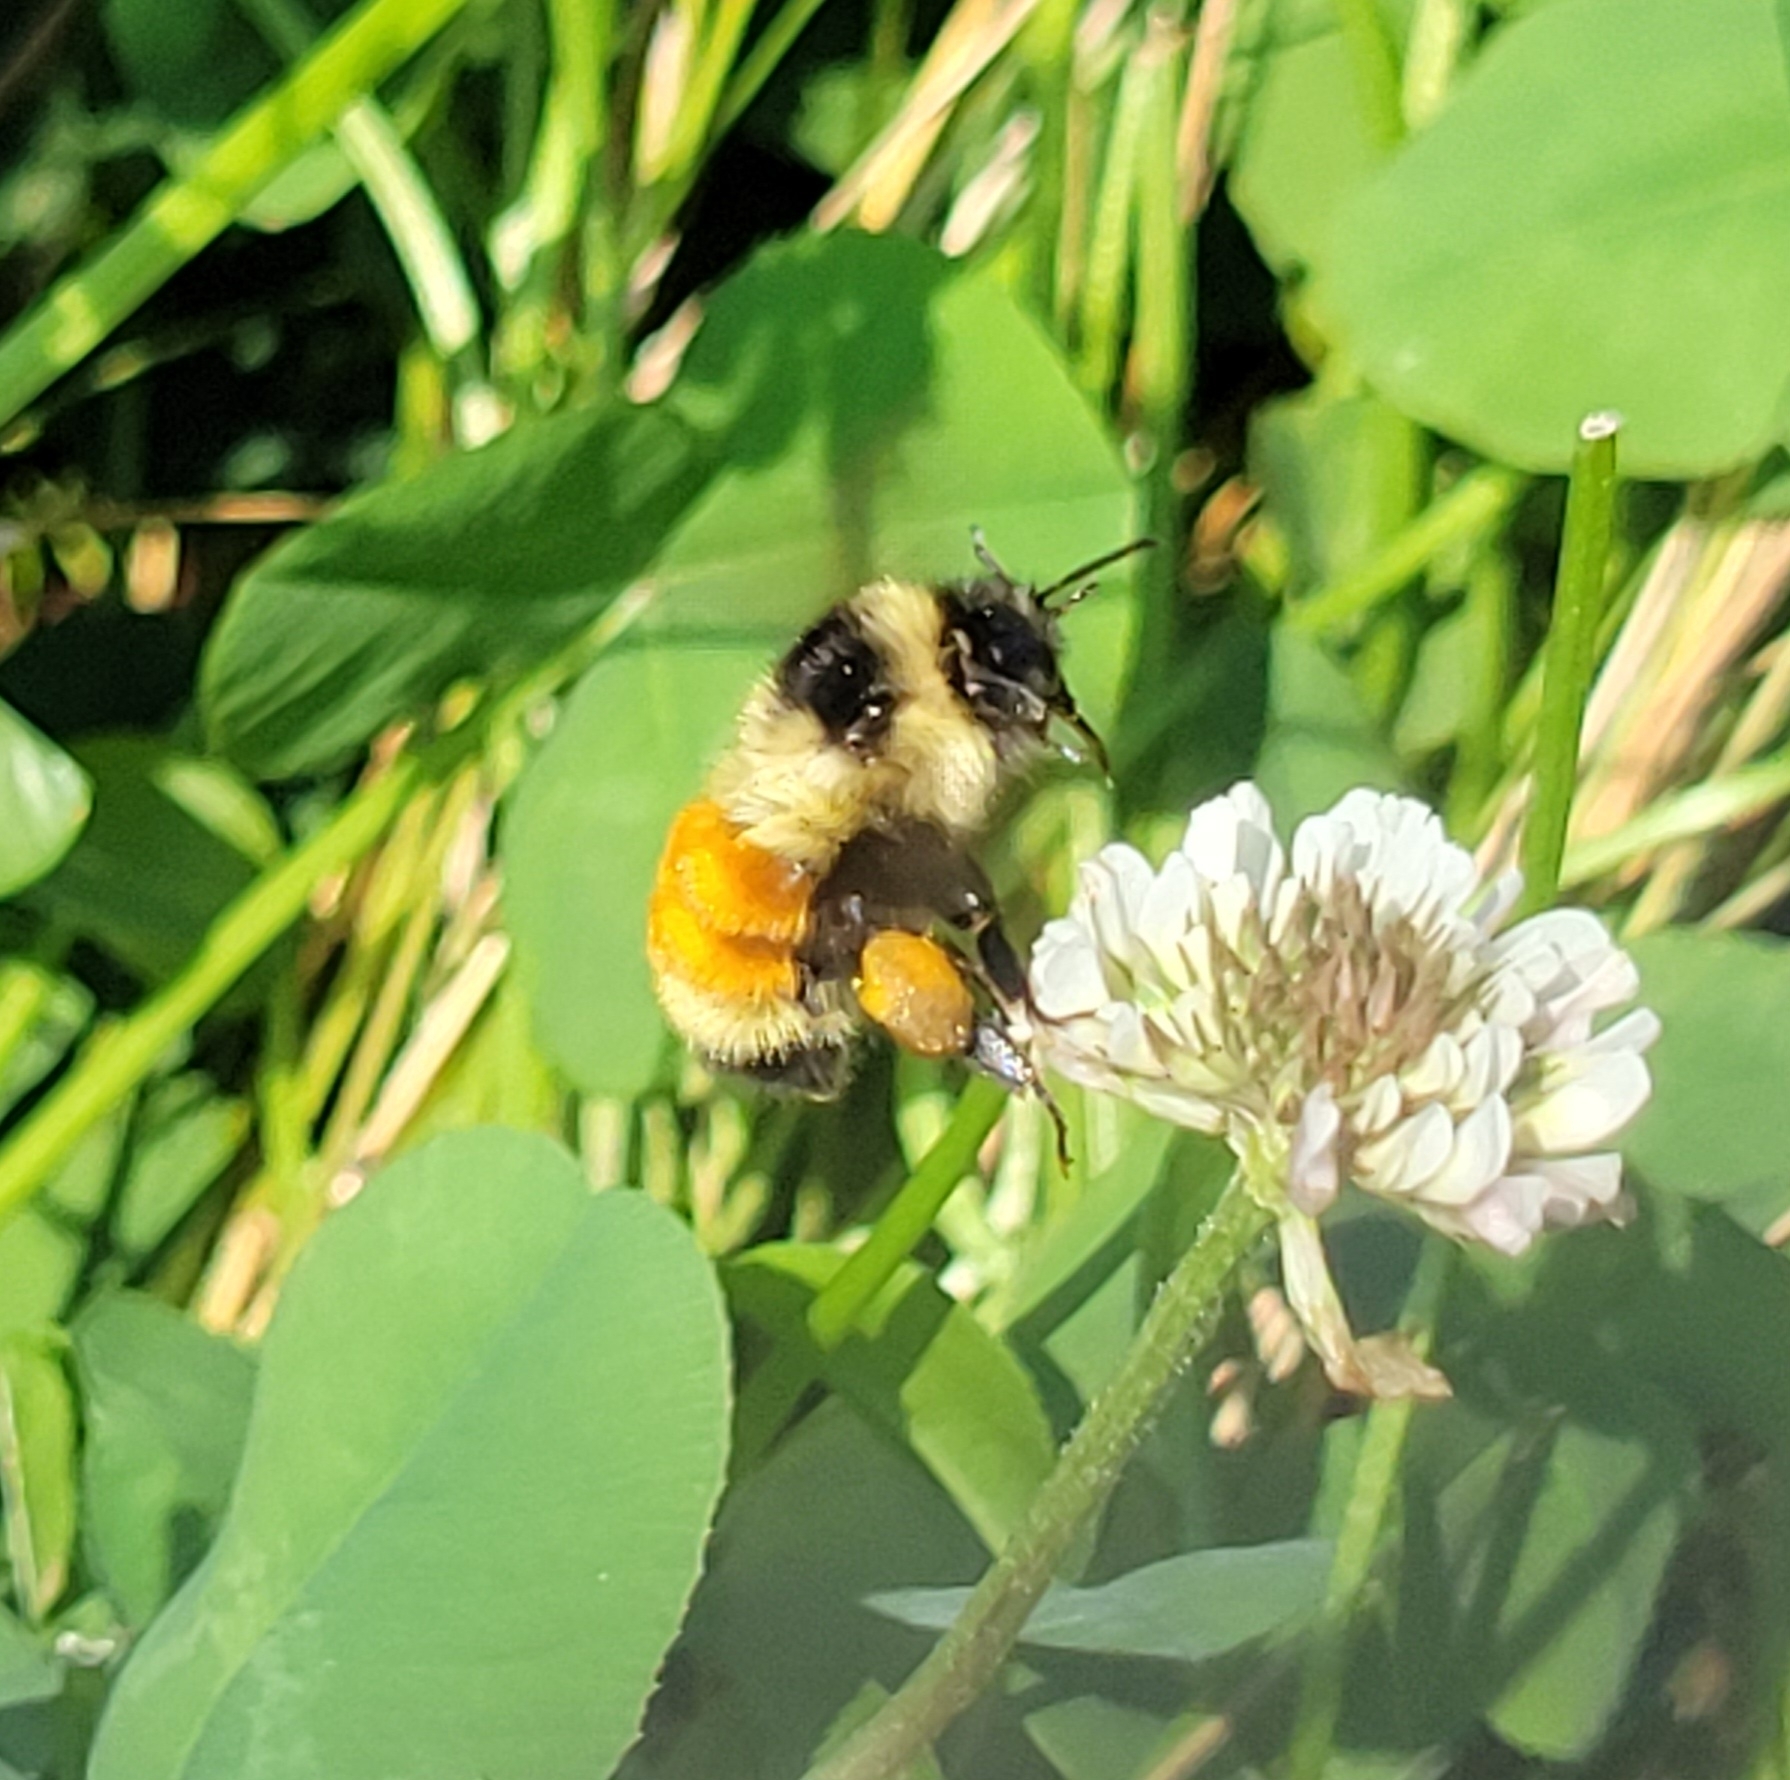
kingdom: Animalia
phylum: Arthropoda
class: Insecta
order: Hymenoptera
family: Apidae
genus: Bombus
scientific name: Bombus ternarius
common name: Tri-colored bumble bee
